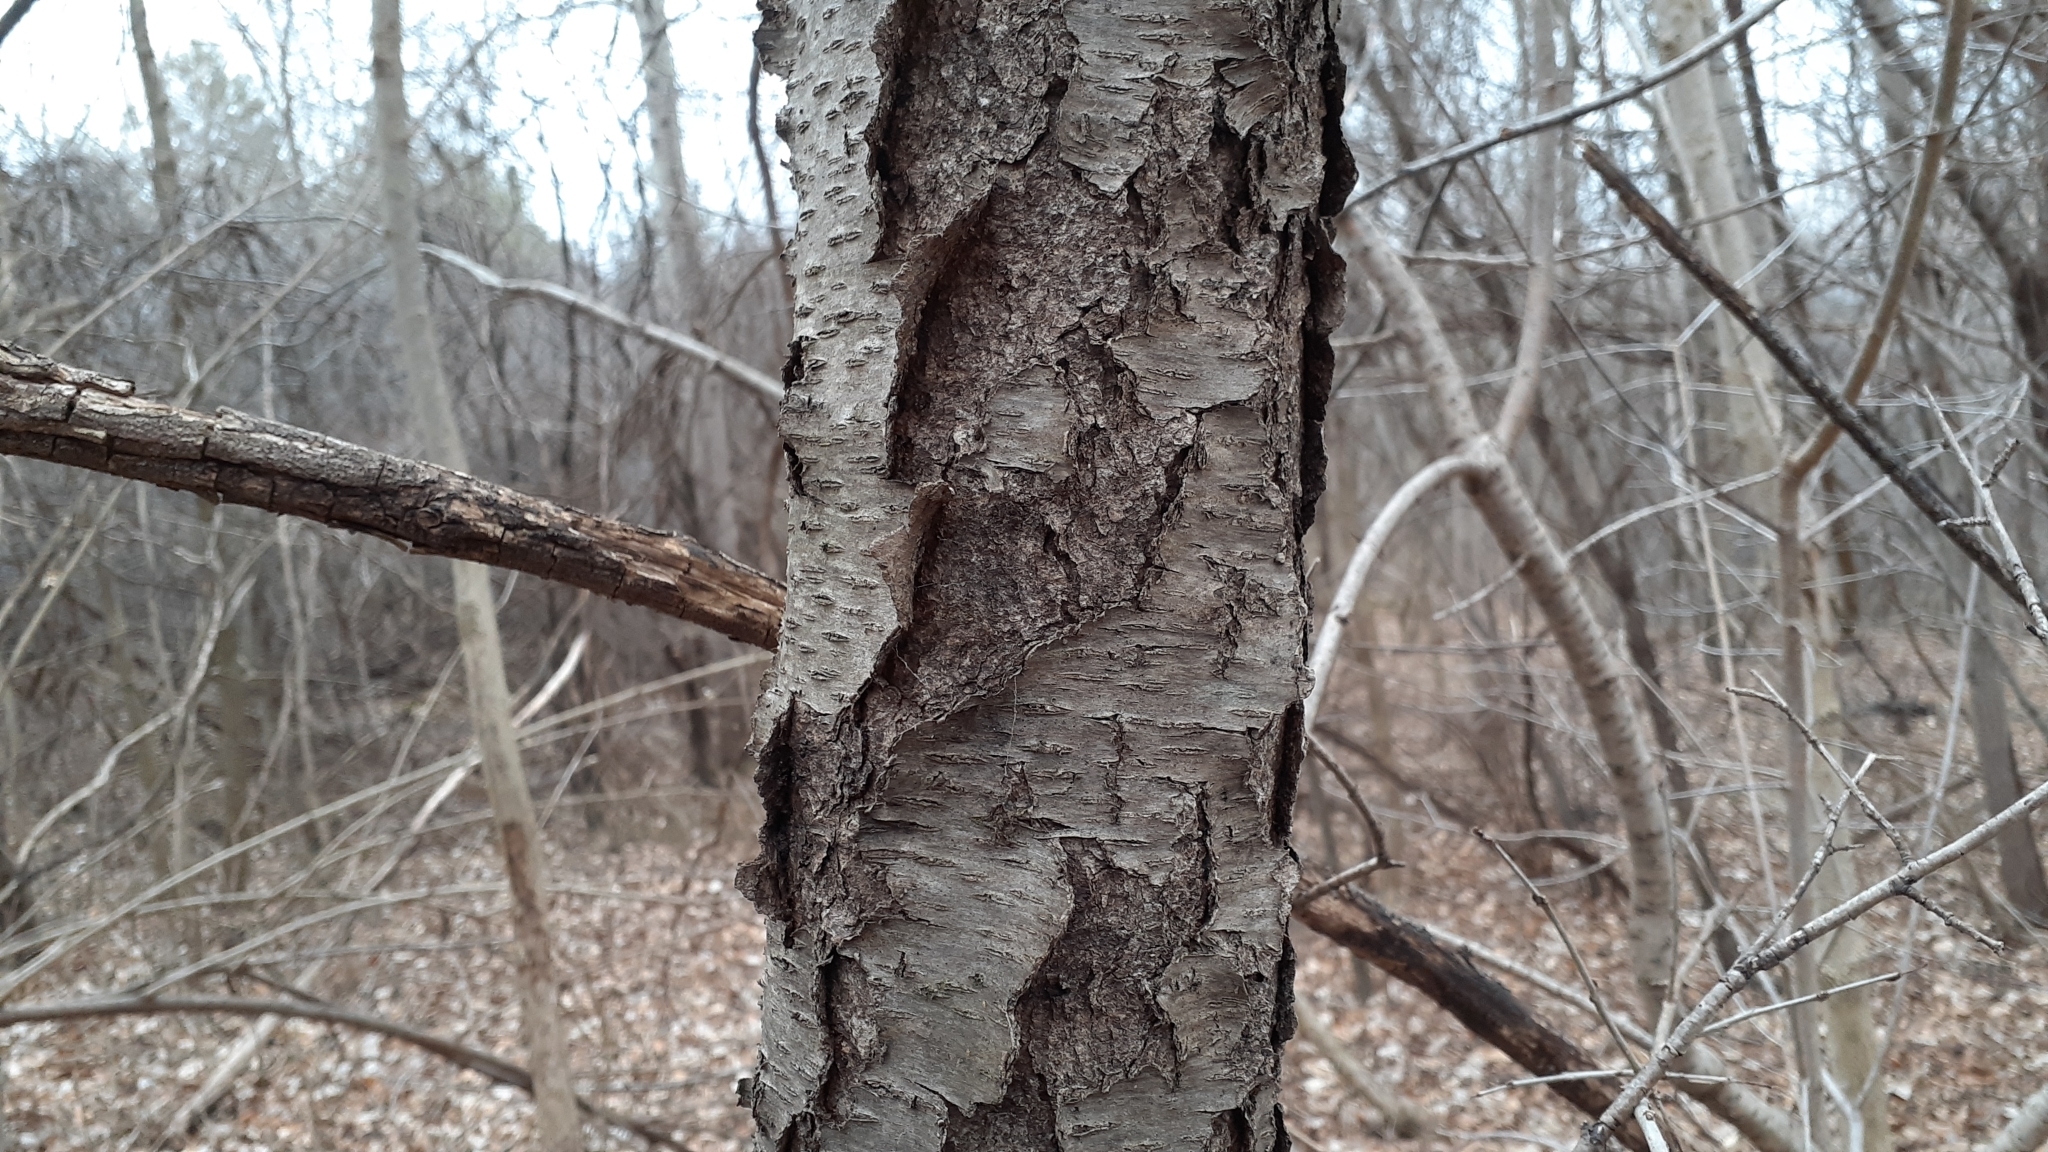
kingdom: Plantae
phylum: Tracheophyta
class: Magnoliopsida
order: Rosales
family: Rosaceae
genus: Prunus
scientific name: Prunus serotina
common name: Black cherry
